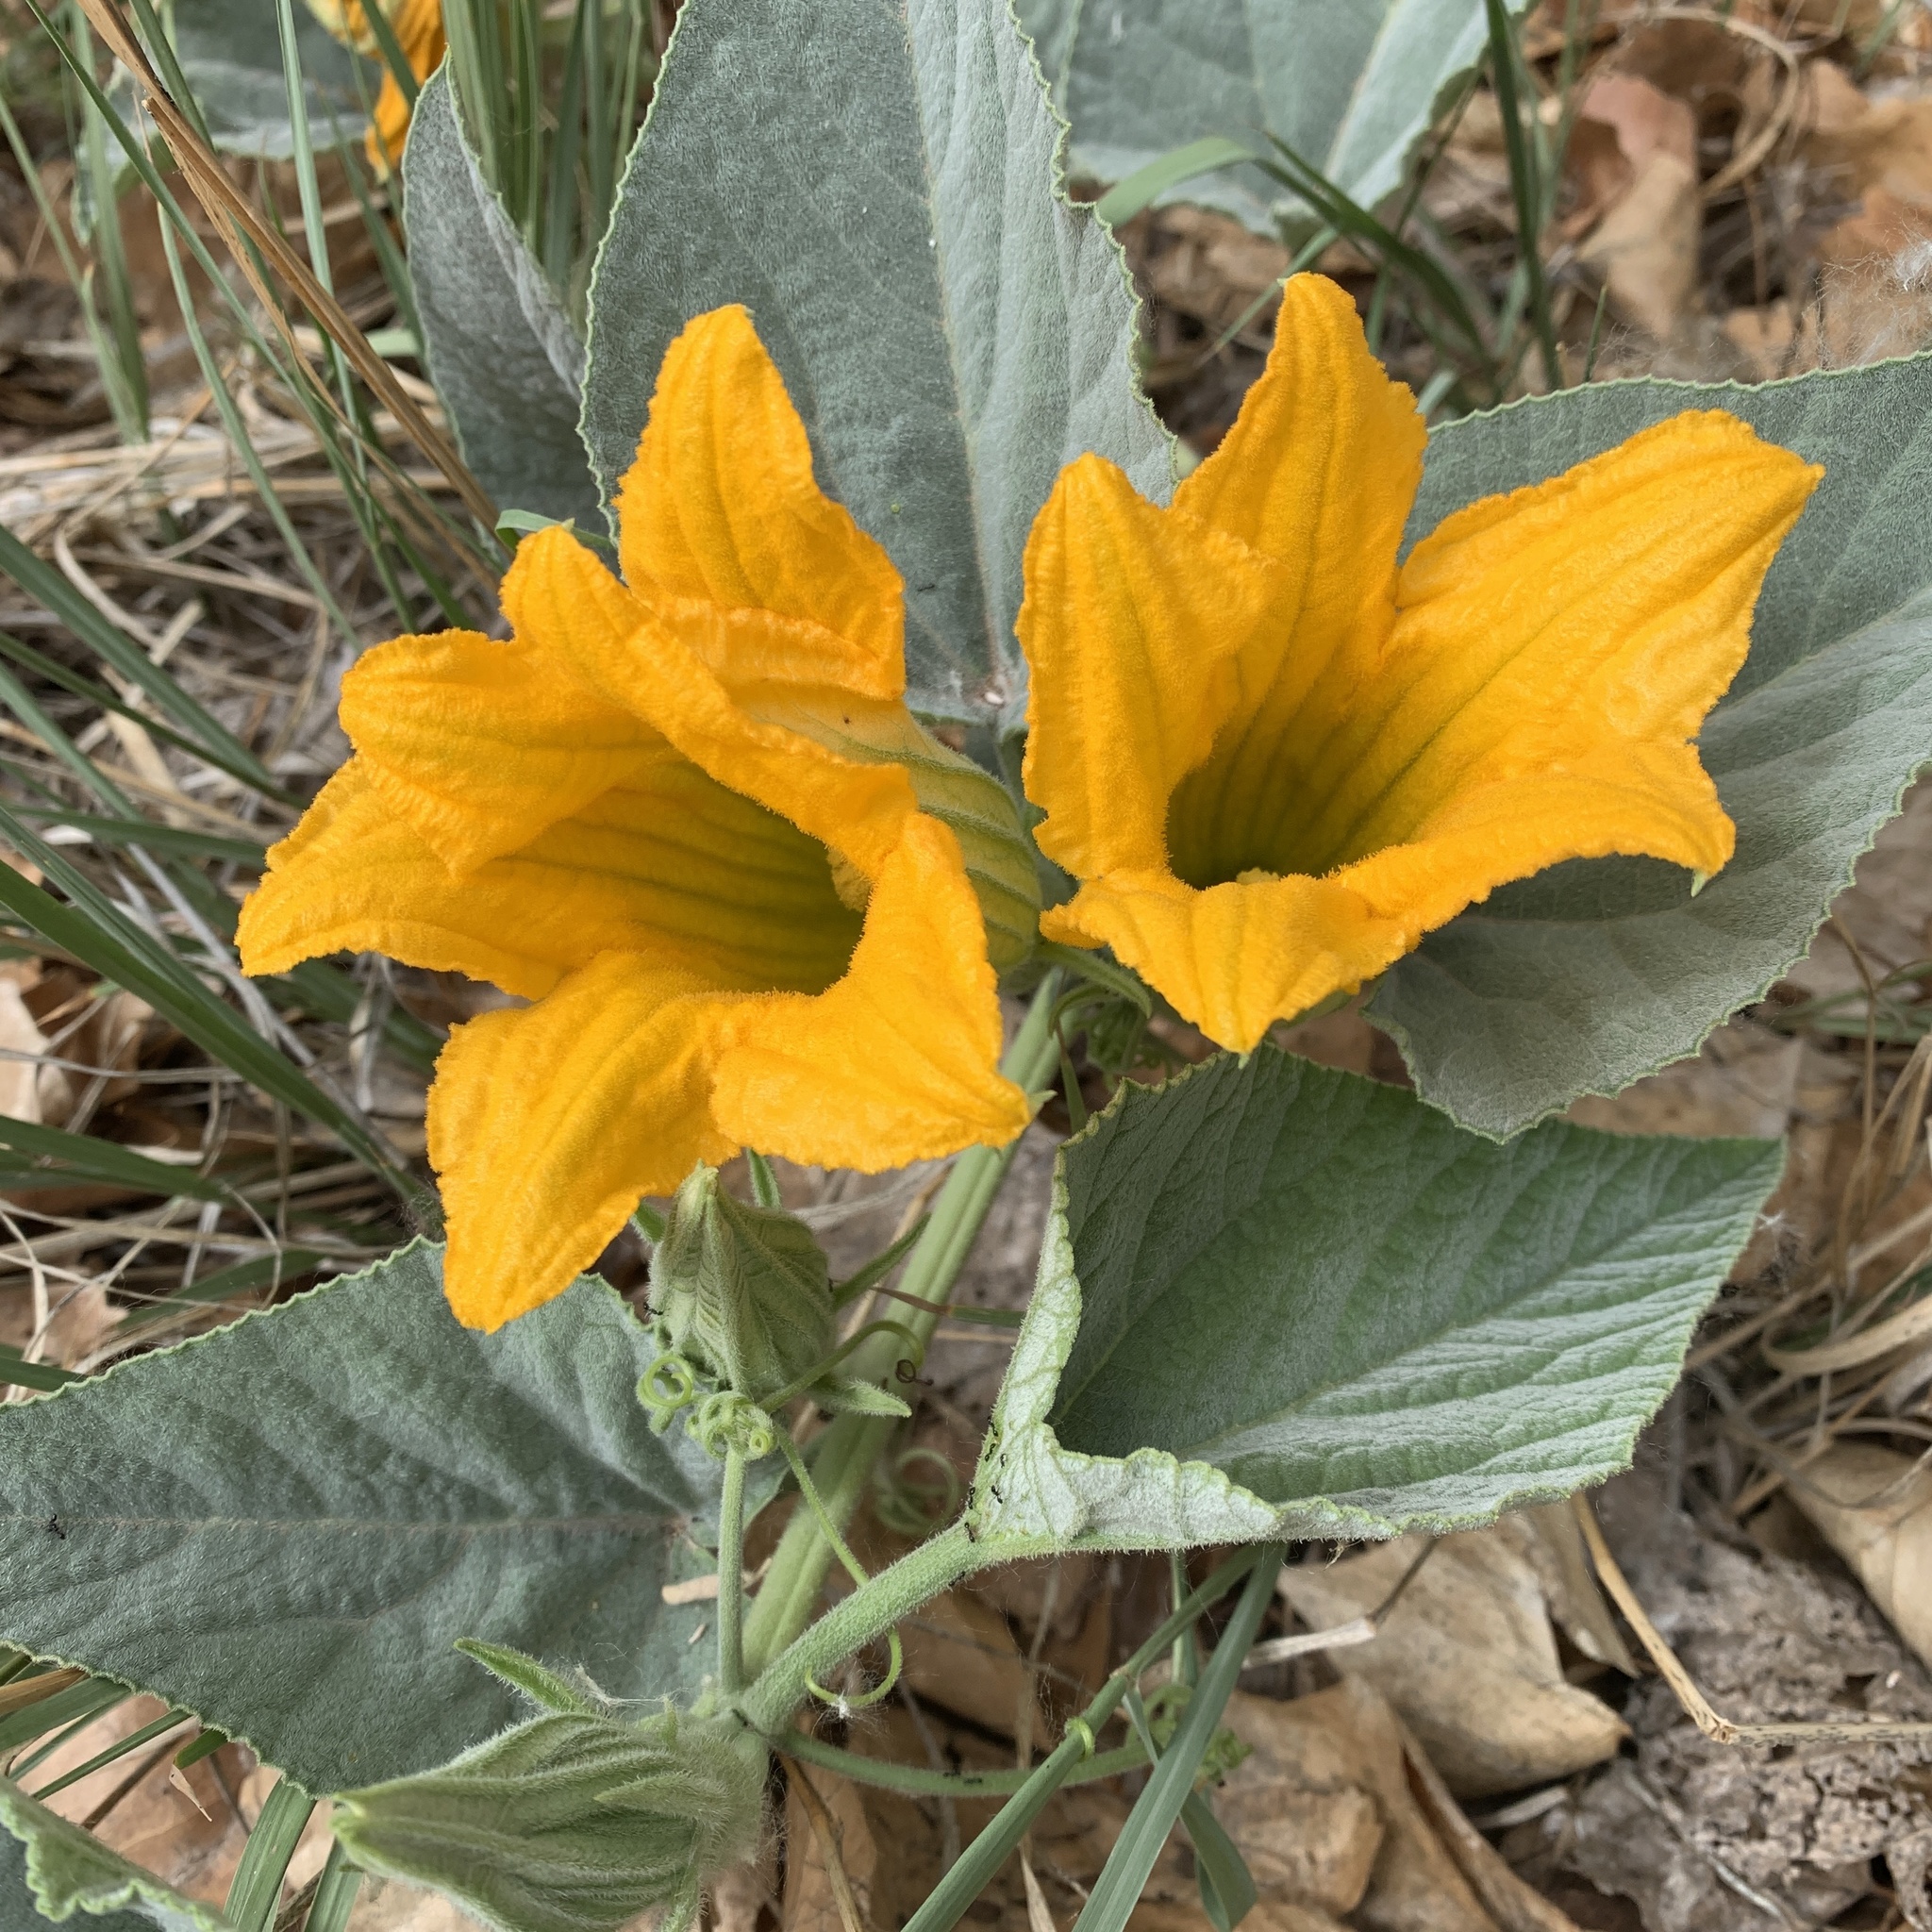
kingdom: Plantae
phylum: Tracheophyta
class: Magnoliopsida
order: Cucurbitales
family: Cucurbitaceae
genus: Cucurbita
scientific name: Cucurbita foetidissima
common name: Buffalo gourd
